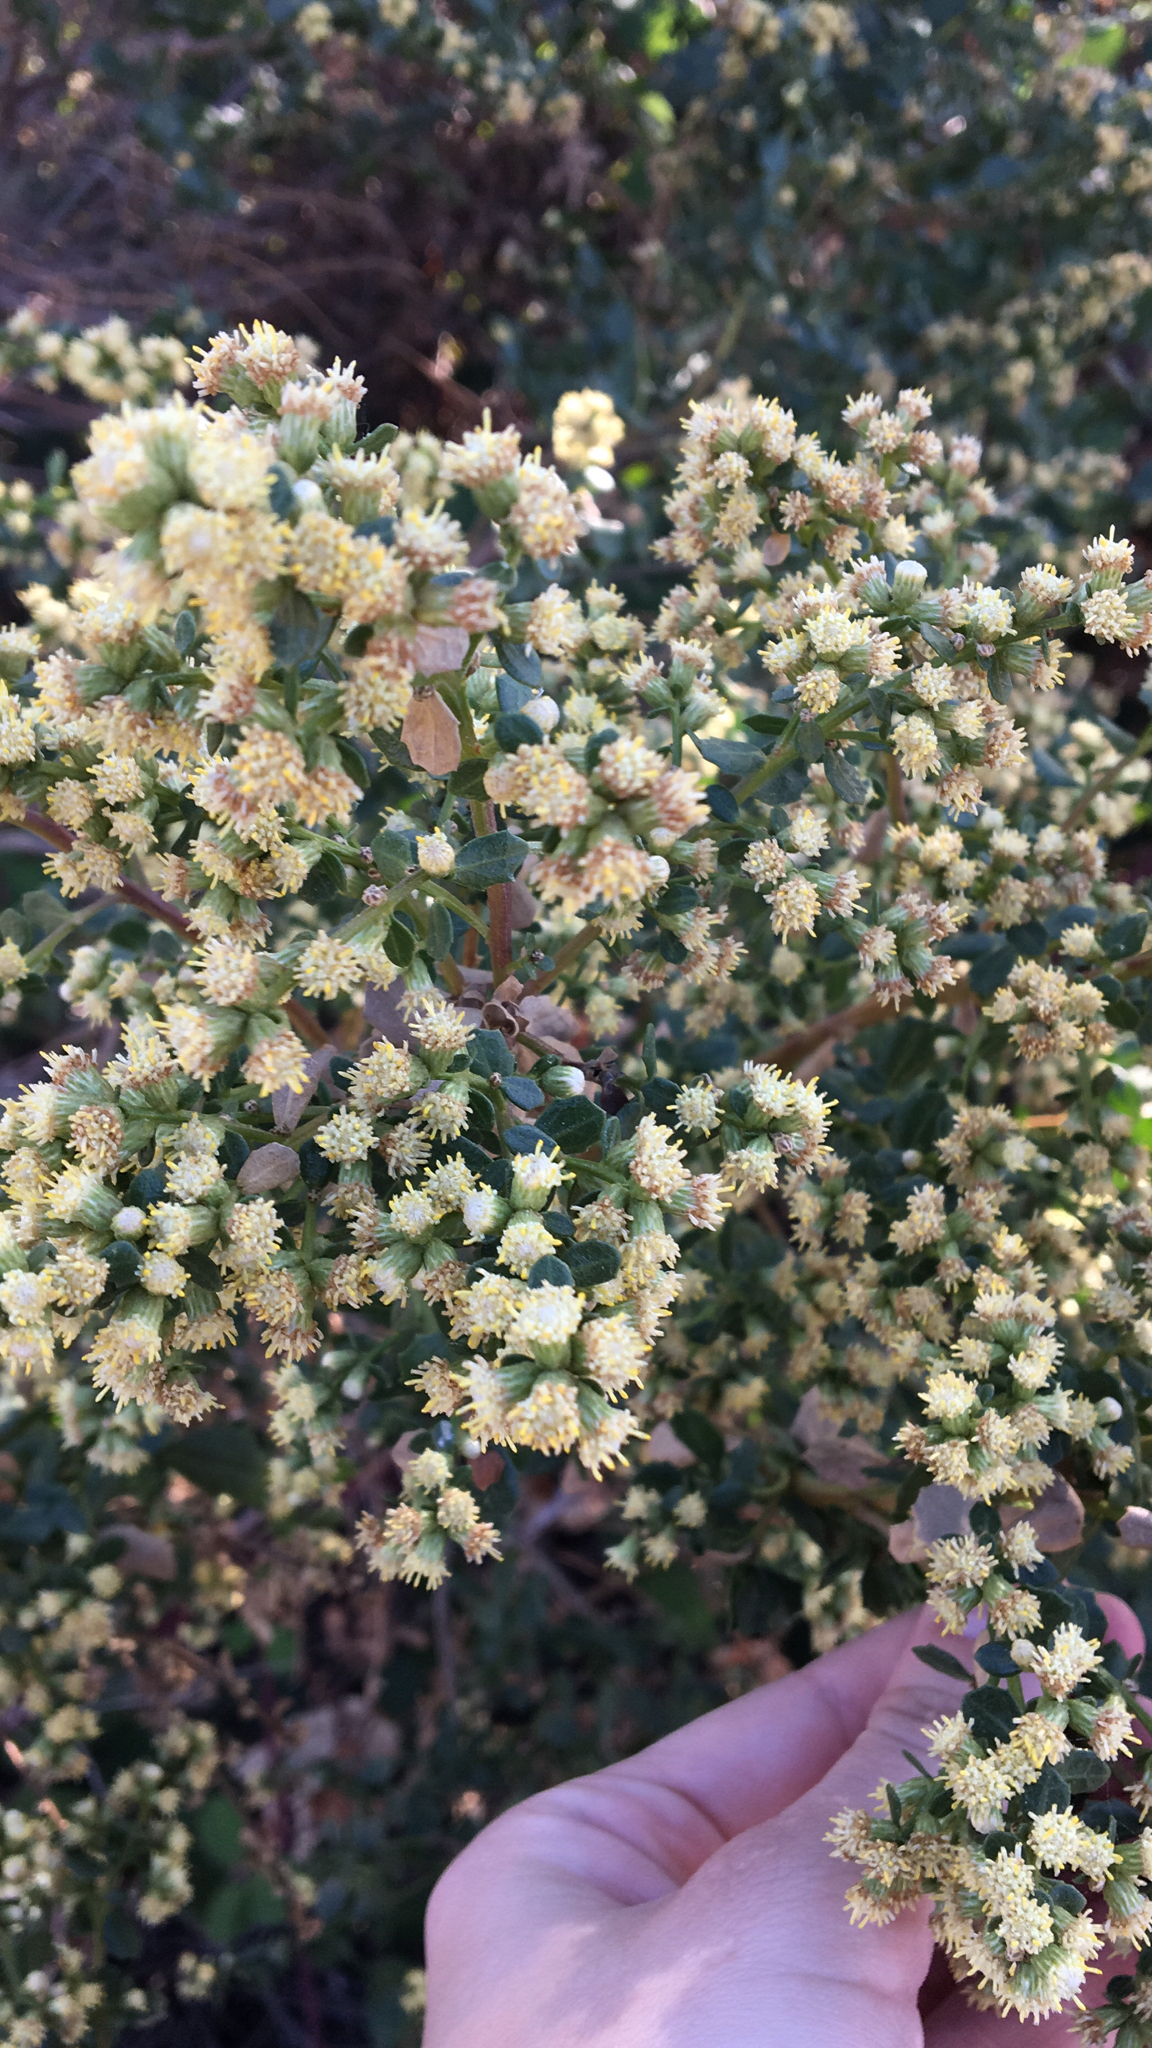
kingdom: Plantae
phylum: Tracheophyta
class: Magnoliopsida
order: Asterales
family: Asteraceae
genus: Baccharis
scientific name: Baccharis pilularis
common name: Coyotebrush
